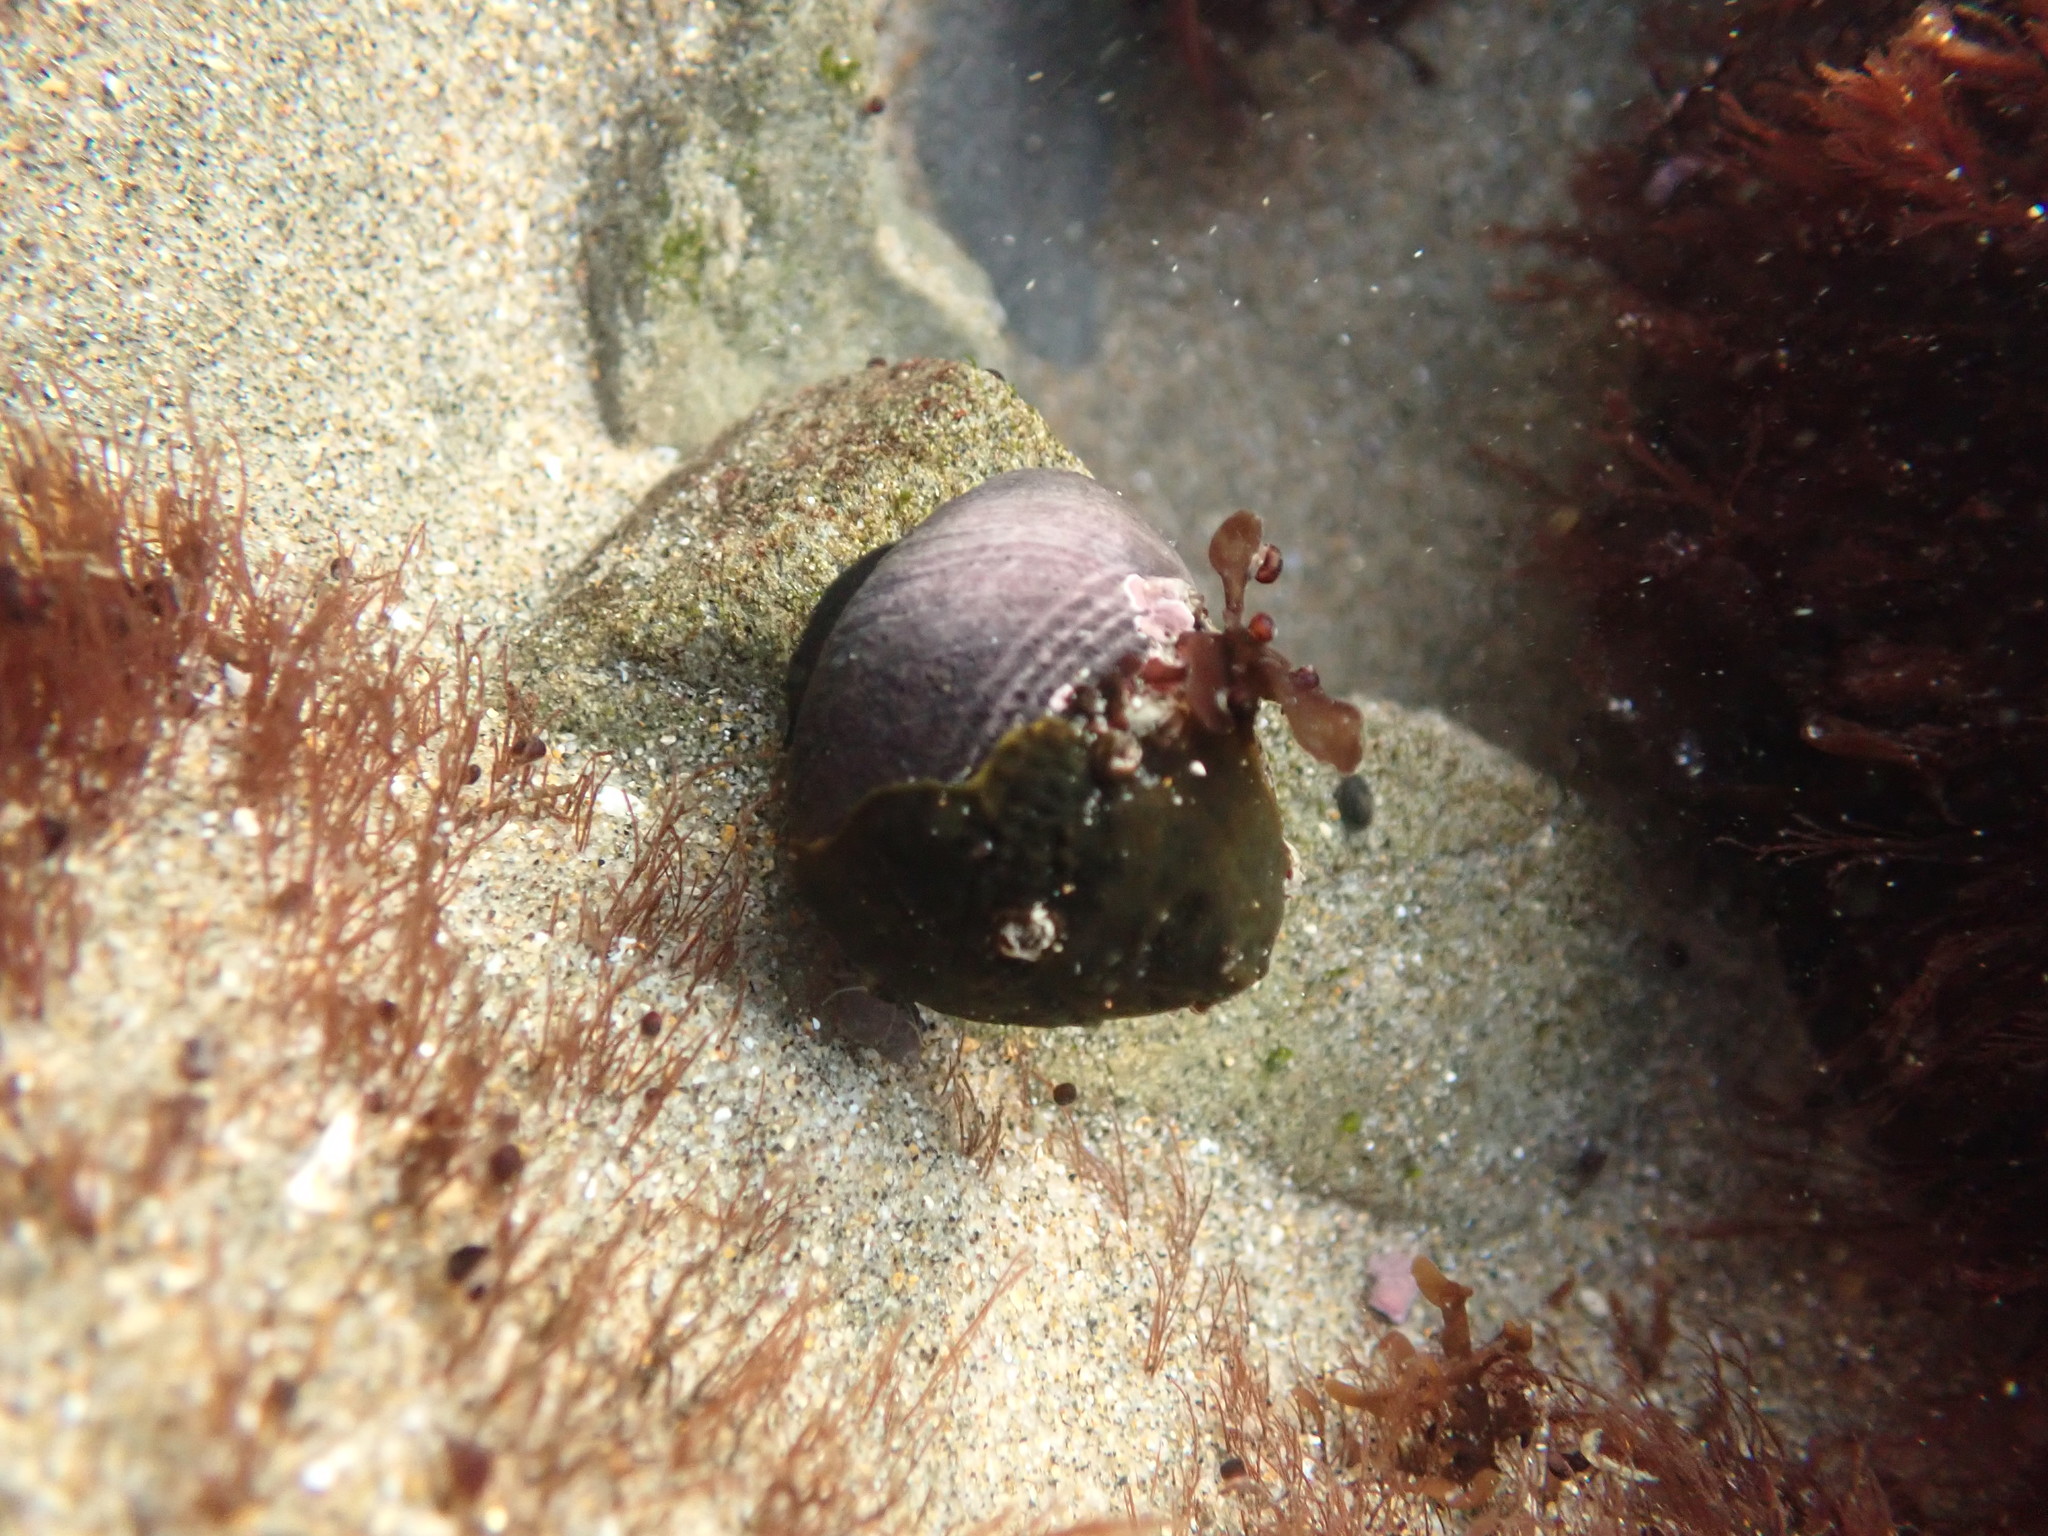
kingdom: Animalia
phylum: Mollusca
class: Gastropoda
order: Trochida
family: Tegulidae
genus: Tegula
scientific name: Tegula funebralis
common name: Black tegula
